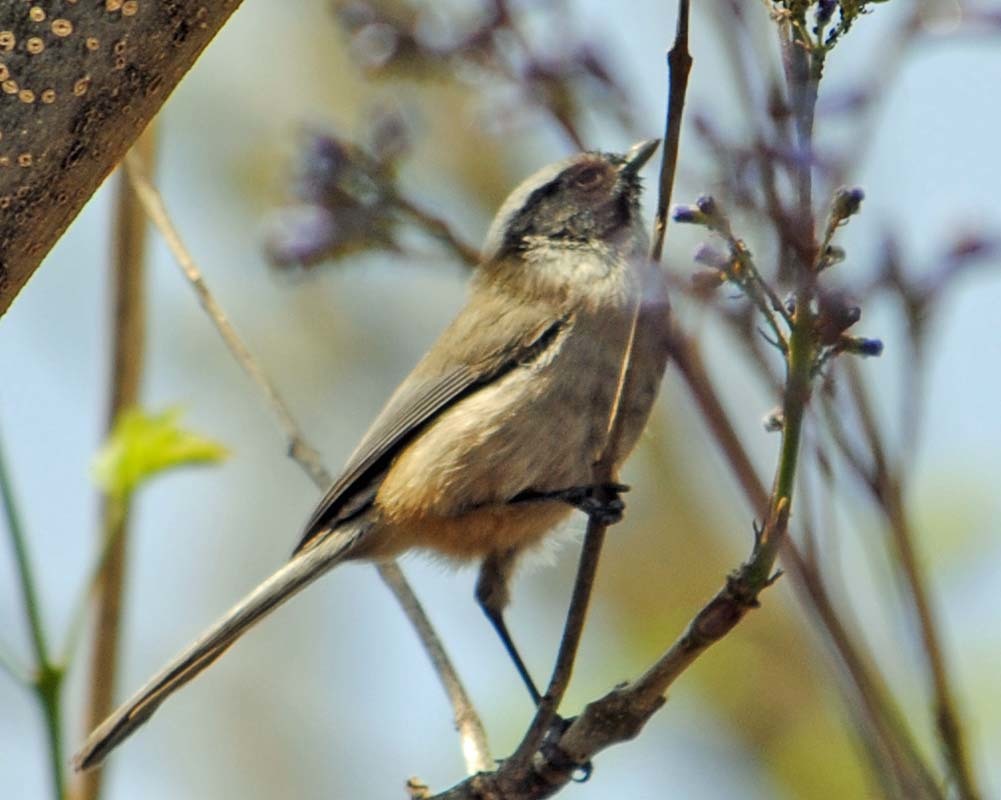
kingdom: Animalia
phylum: Chordata
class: Aves
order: Passeriformes
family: Aegithalidae
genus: Psaltriparus
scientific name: Psaltriparus minimus
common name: American bushtit
